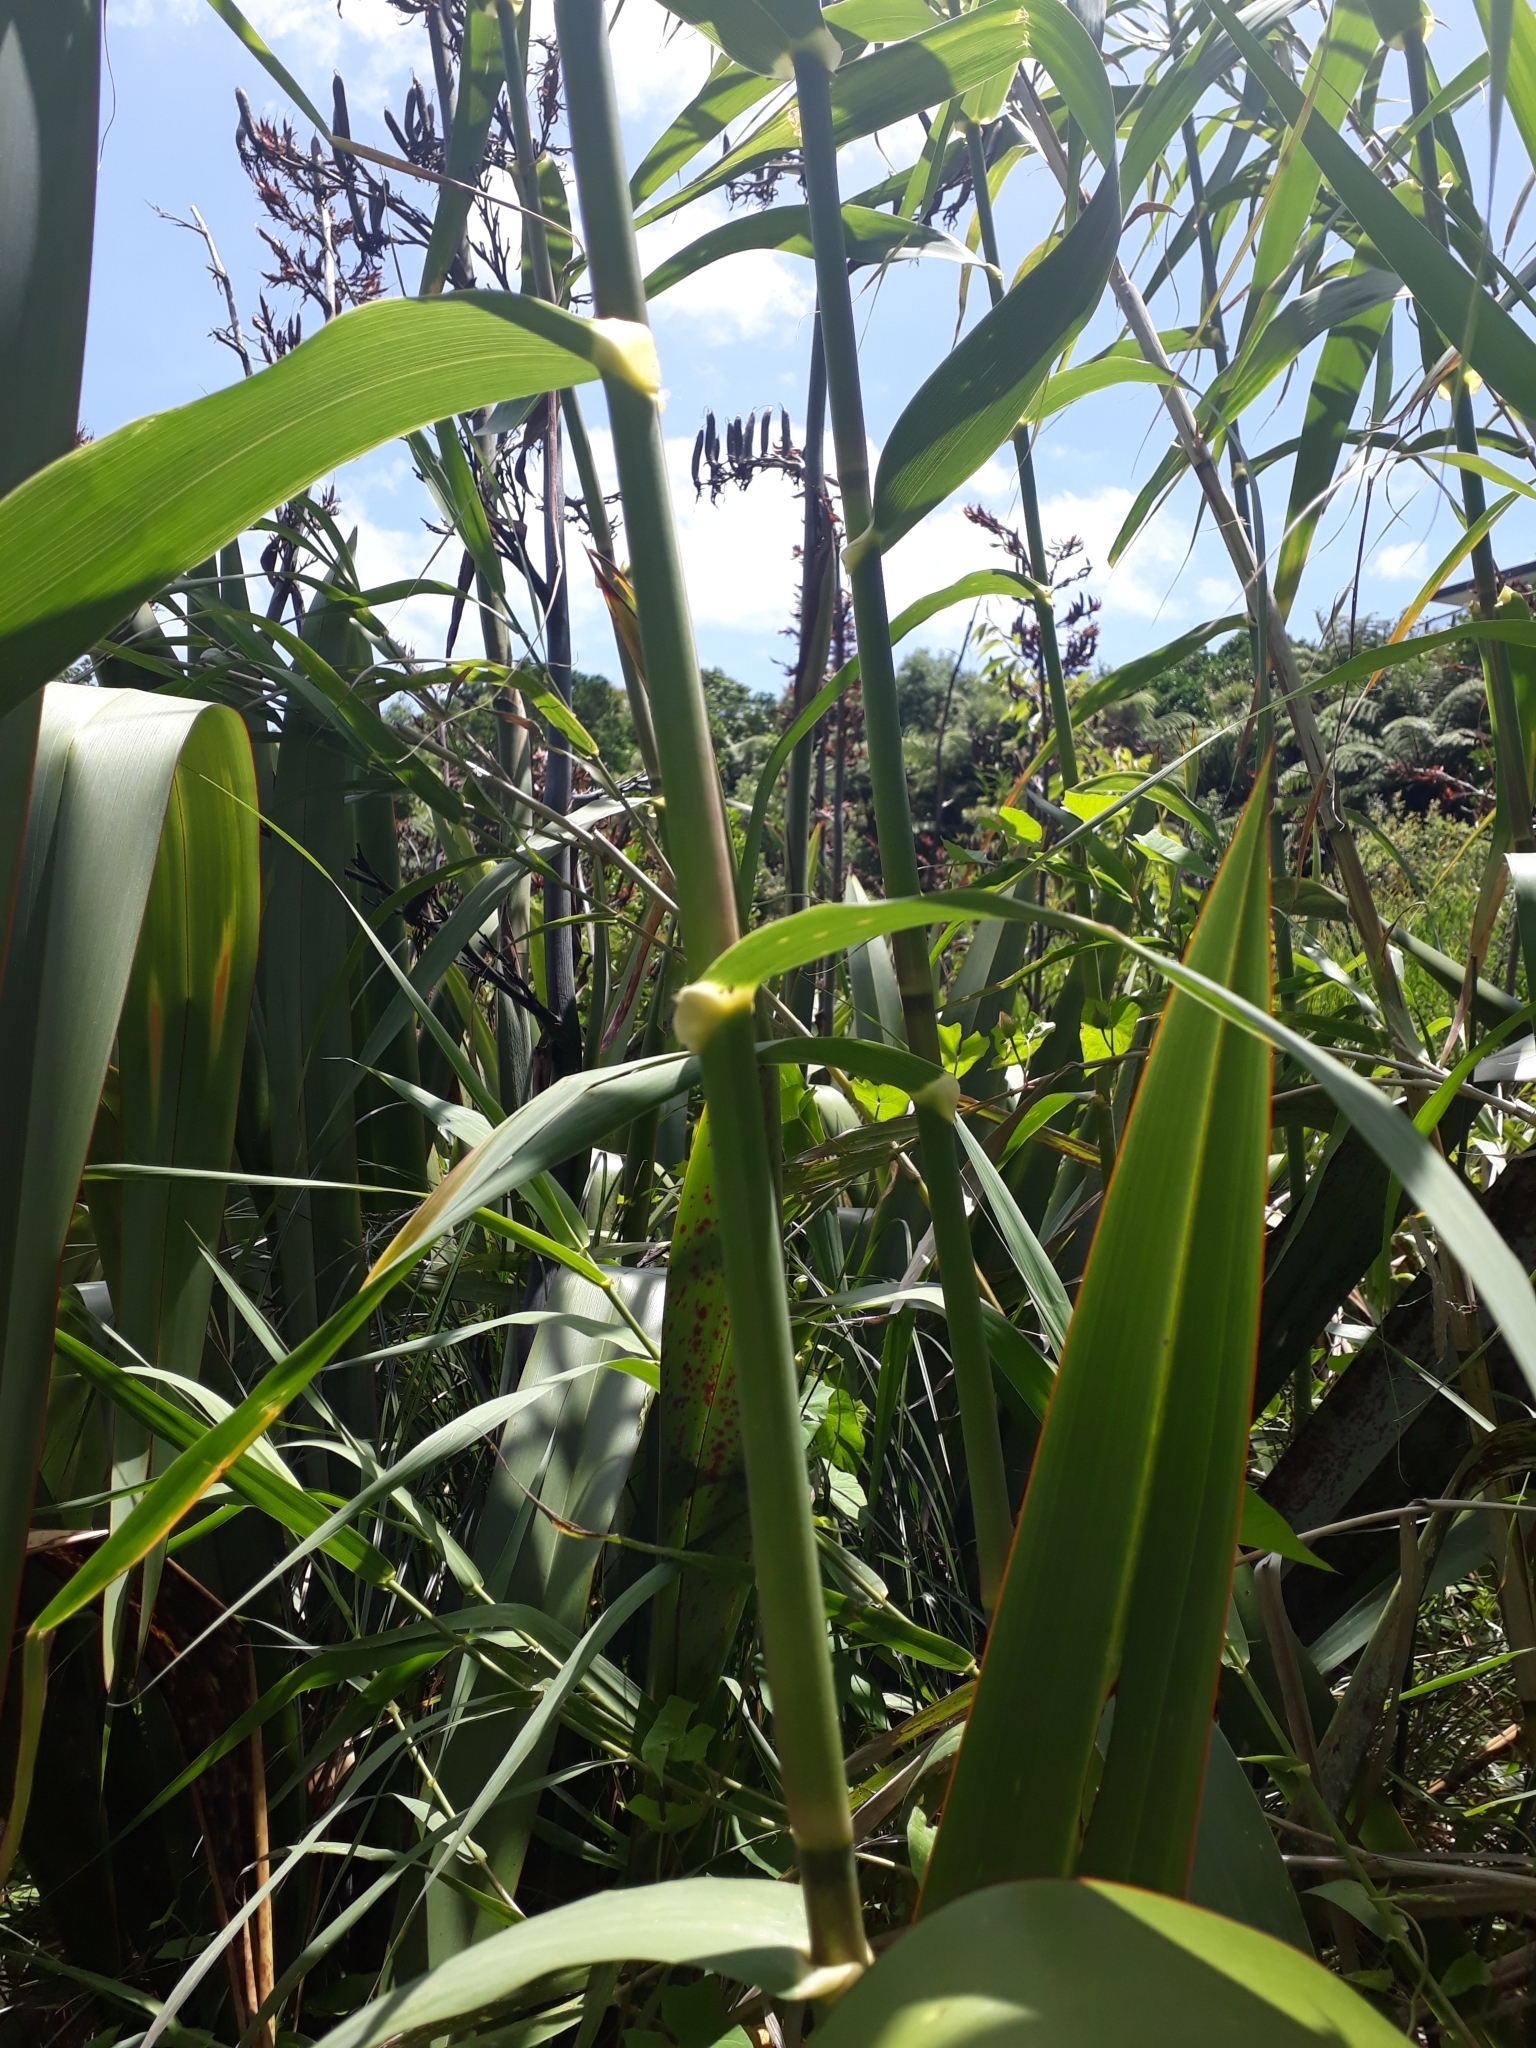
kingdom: Plantae
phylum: Tracheophyta
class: Liliopsida
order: Poales
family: Poaceae
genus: Arundo
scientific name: Arundo donax
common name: Giant reed
